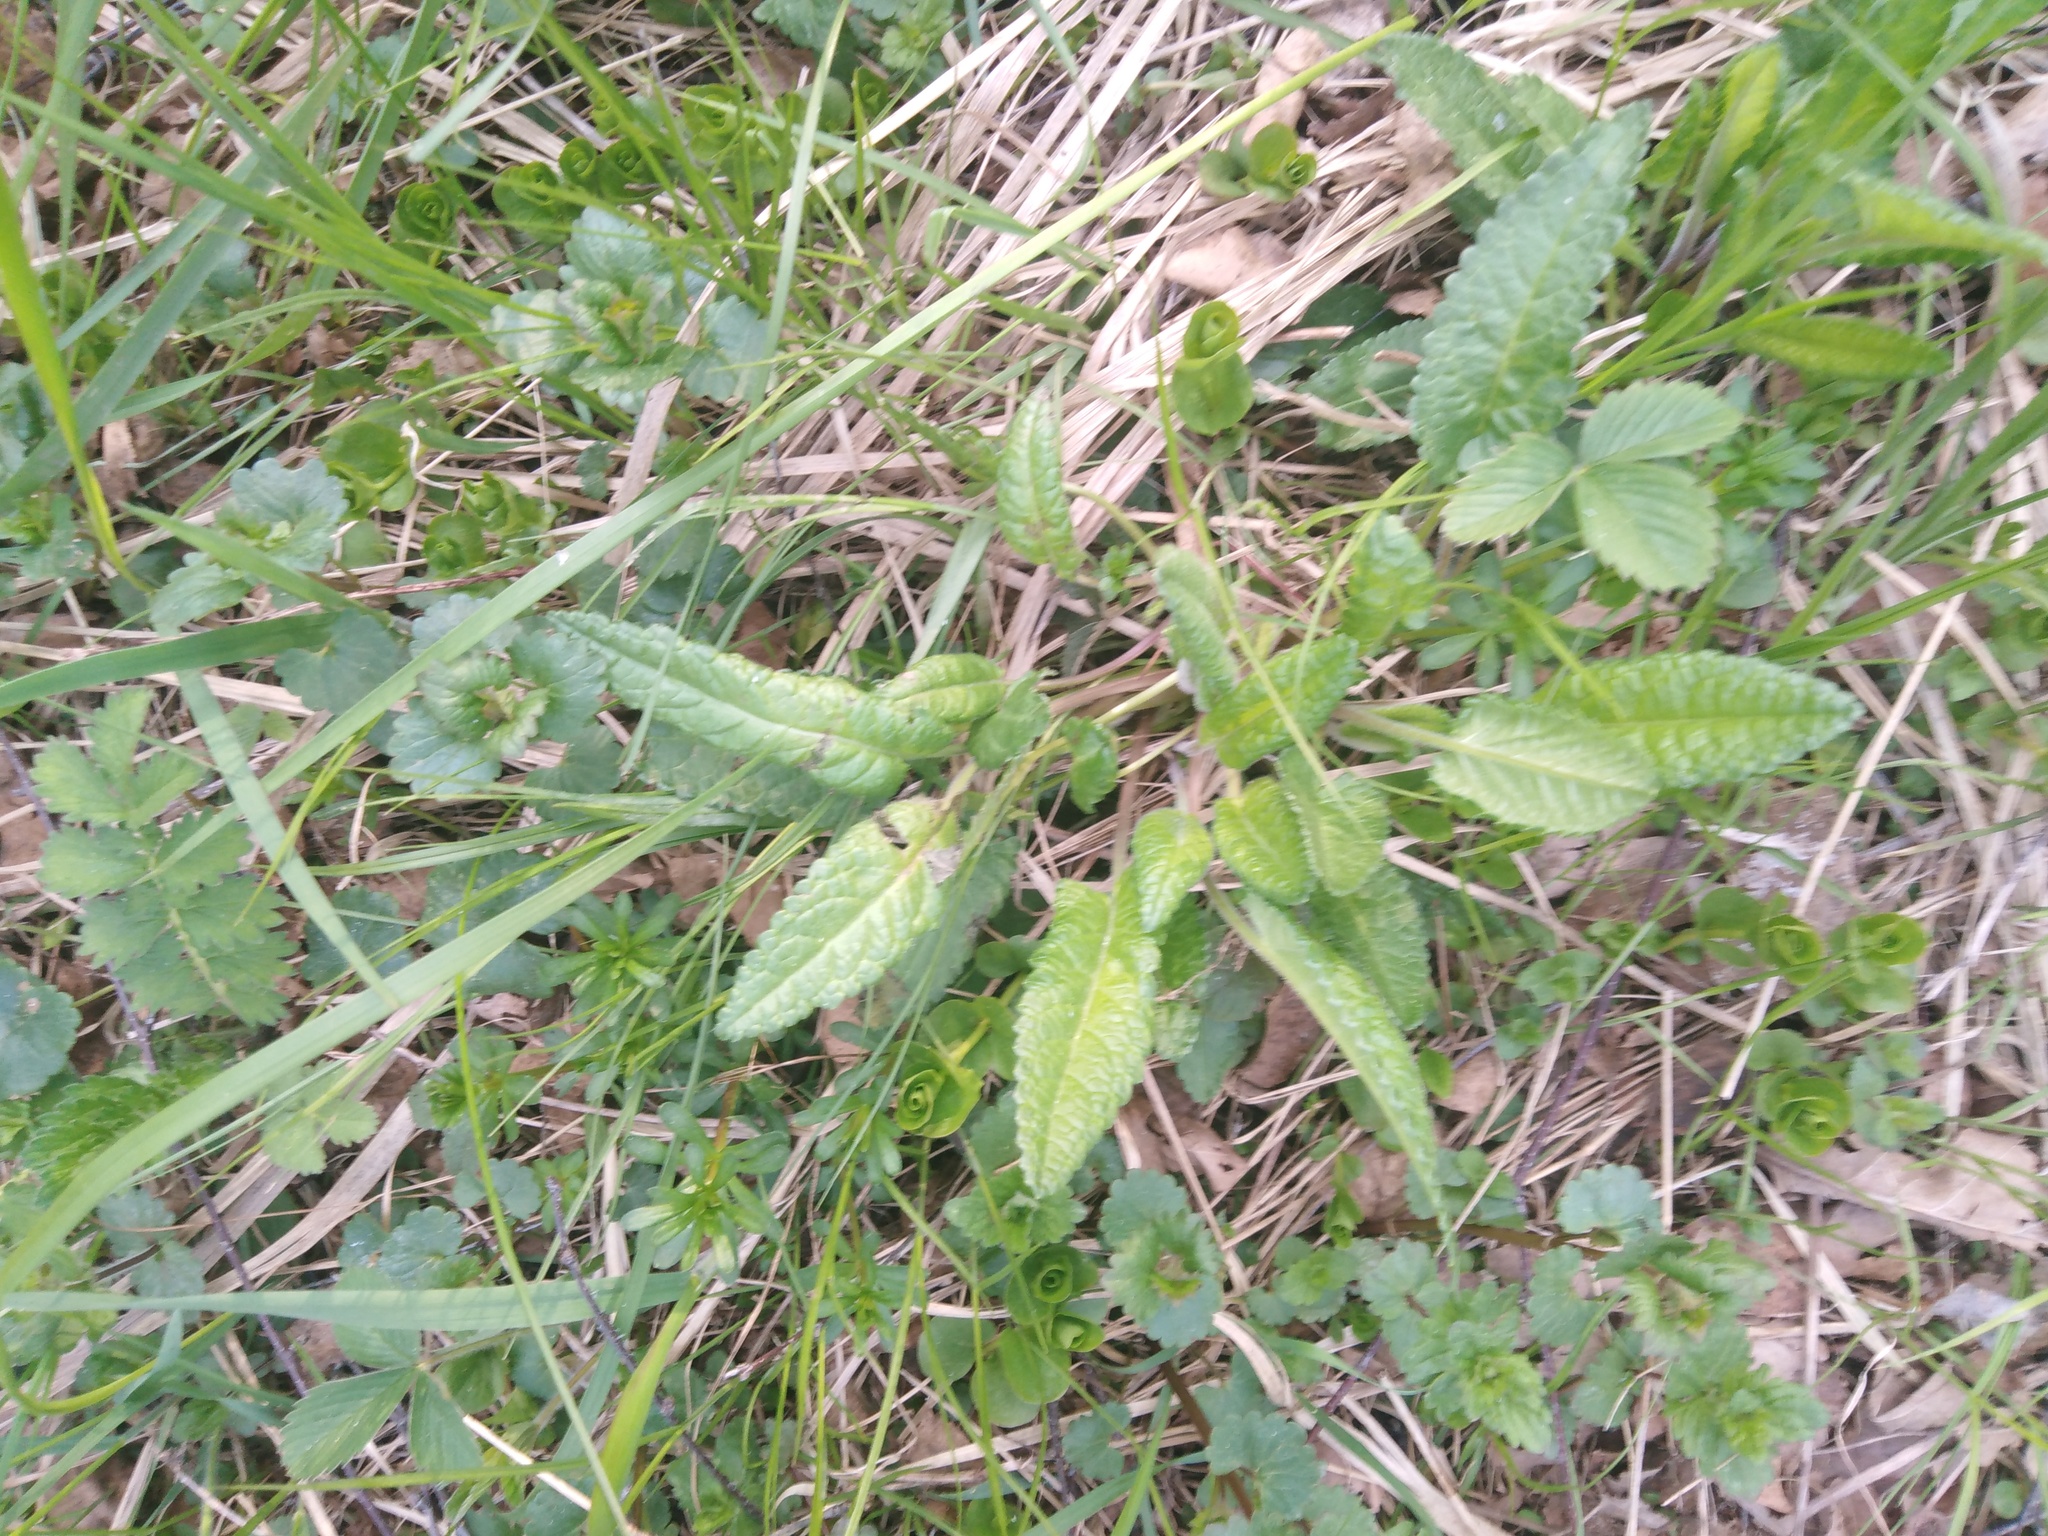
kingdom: Plantae
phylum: Tracheophyta
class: Magnoliopsida
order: Lamiales
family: Lamiaceae
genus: Betonica
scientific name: Betonica officinalis
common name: Bishop's-wort
